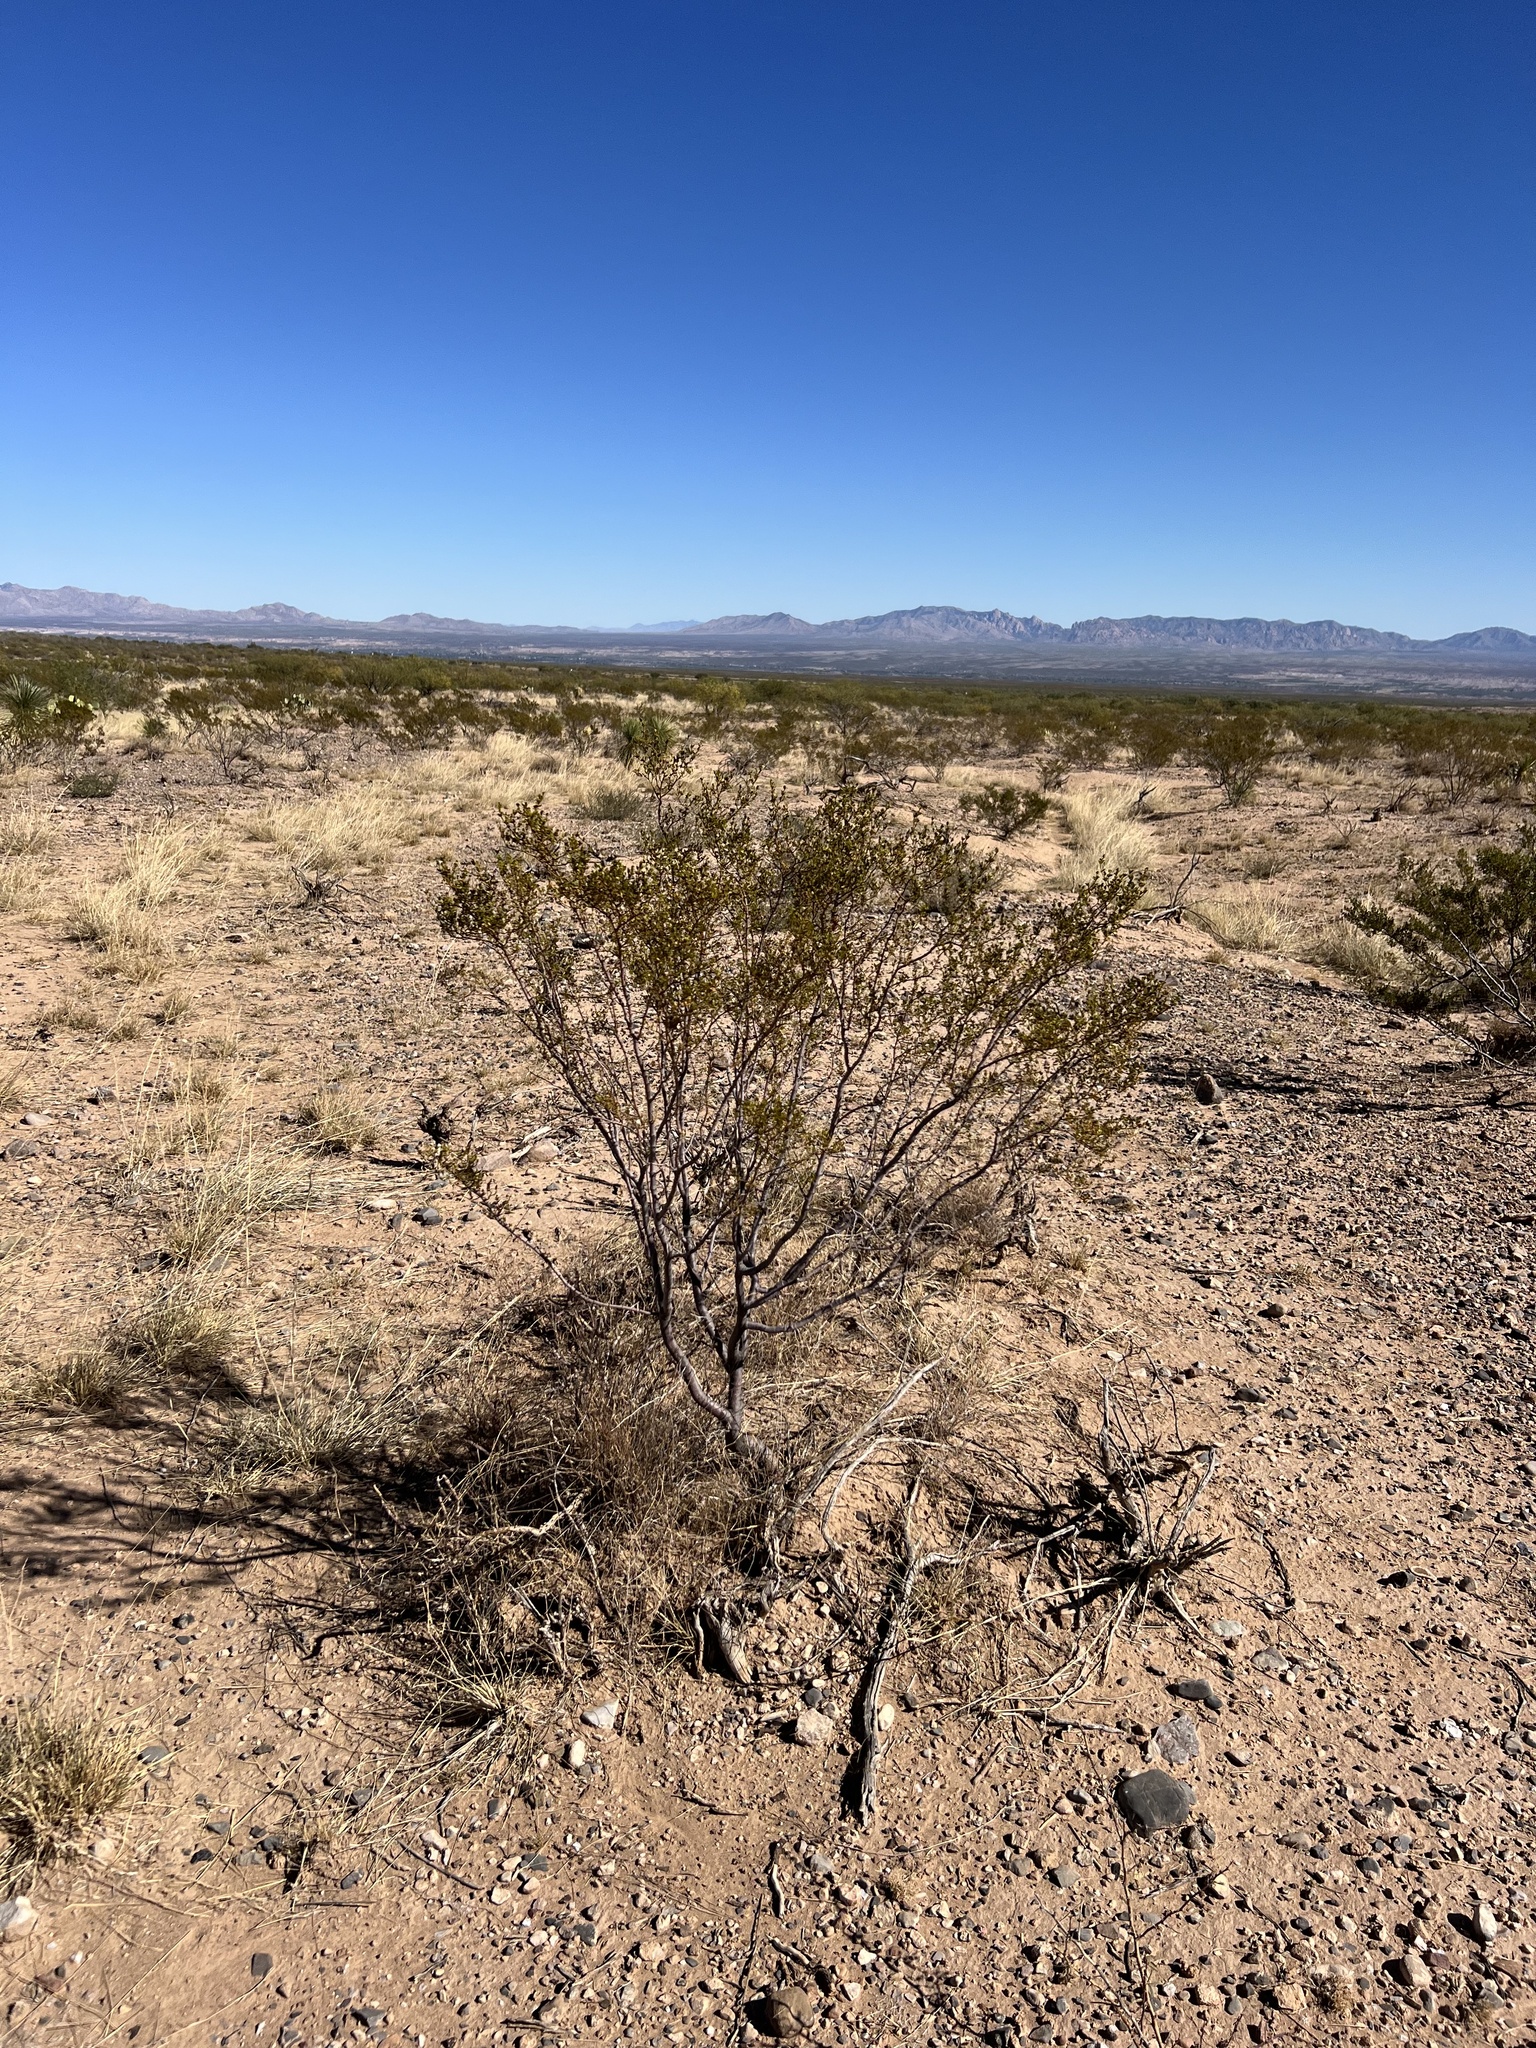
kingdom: Plantae
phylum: Tracheophyta
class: Magnoliopsida
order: Zygophyllales
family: Zygophyllaceae
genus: Larrea
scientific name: Larrea tridentata
